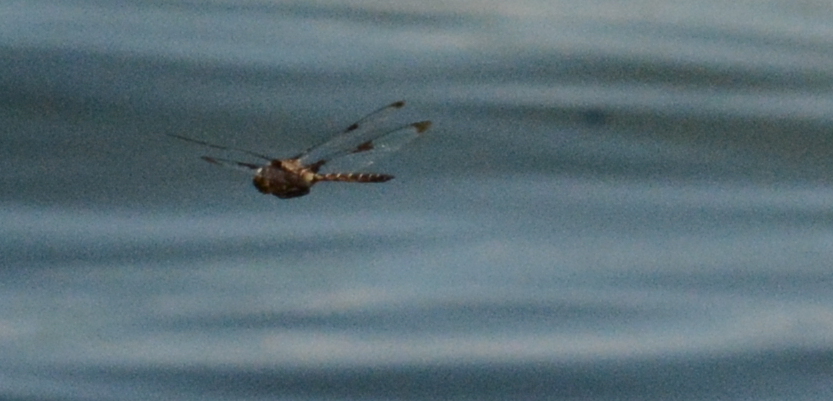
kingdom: Animalia
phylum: Arthropoda
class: Insecta
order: Odonata
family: Corduliidae
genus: Epitheca
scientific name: Epitheca princeps
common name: Prince baskettail
